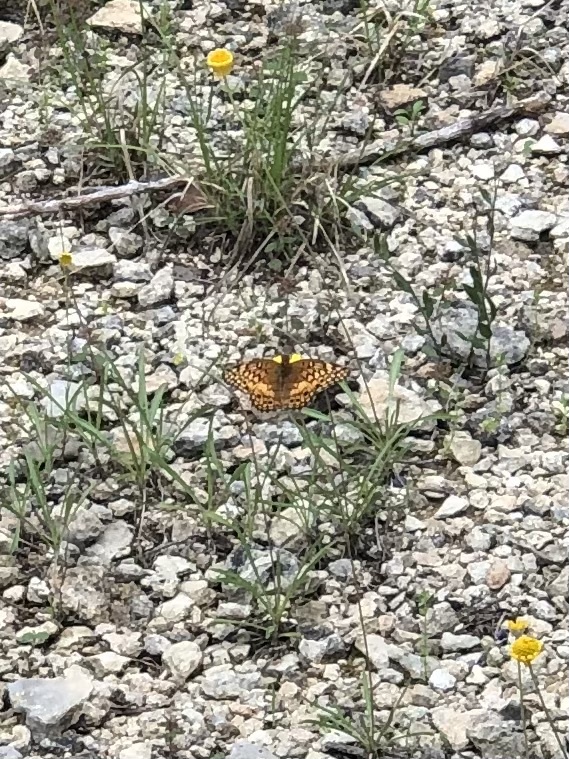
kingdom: Animalia
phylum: Arthropoda
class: Insecta
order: Lepidoptera
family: Nymphalidae
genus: Euptoieta
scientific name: Euptoieta claudia
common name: Variegated fritillary
